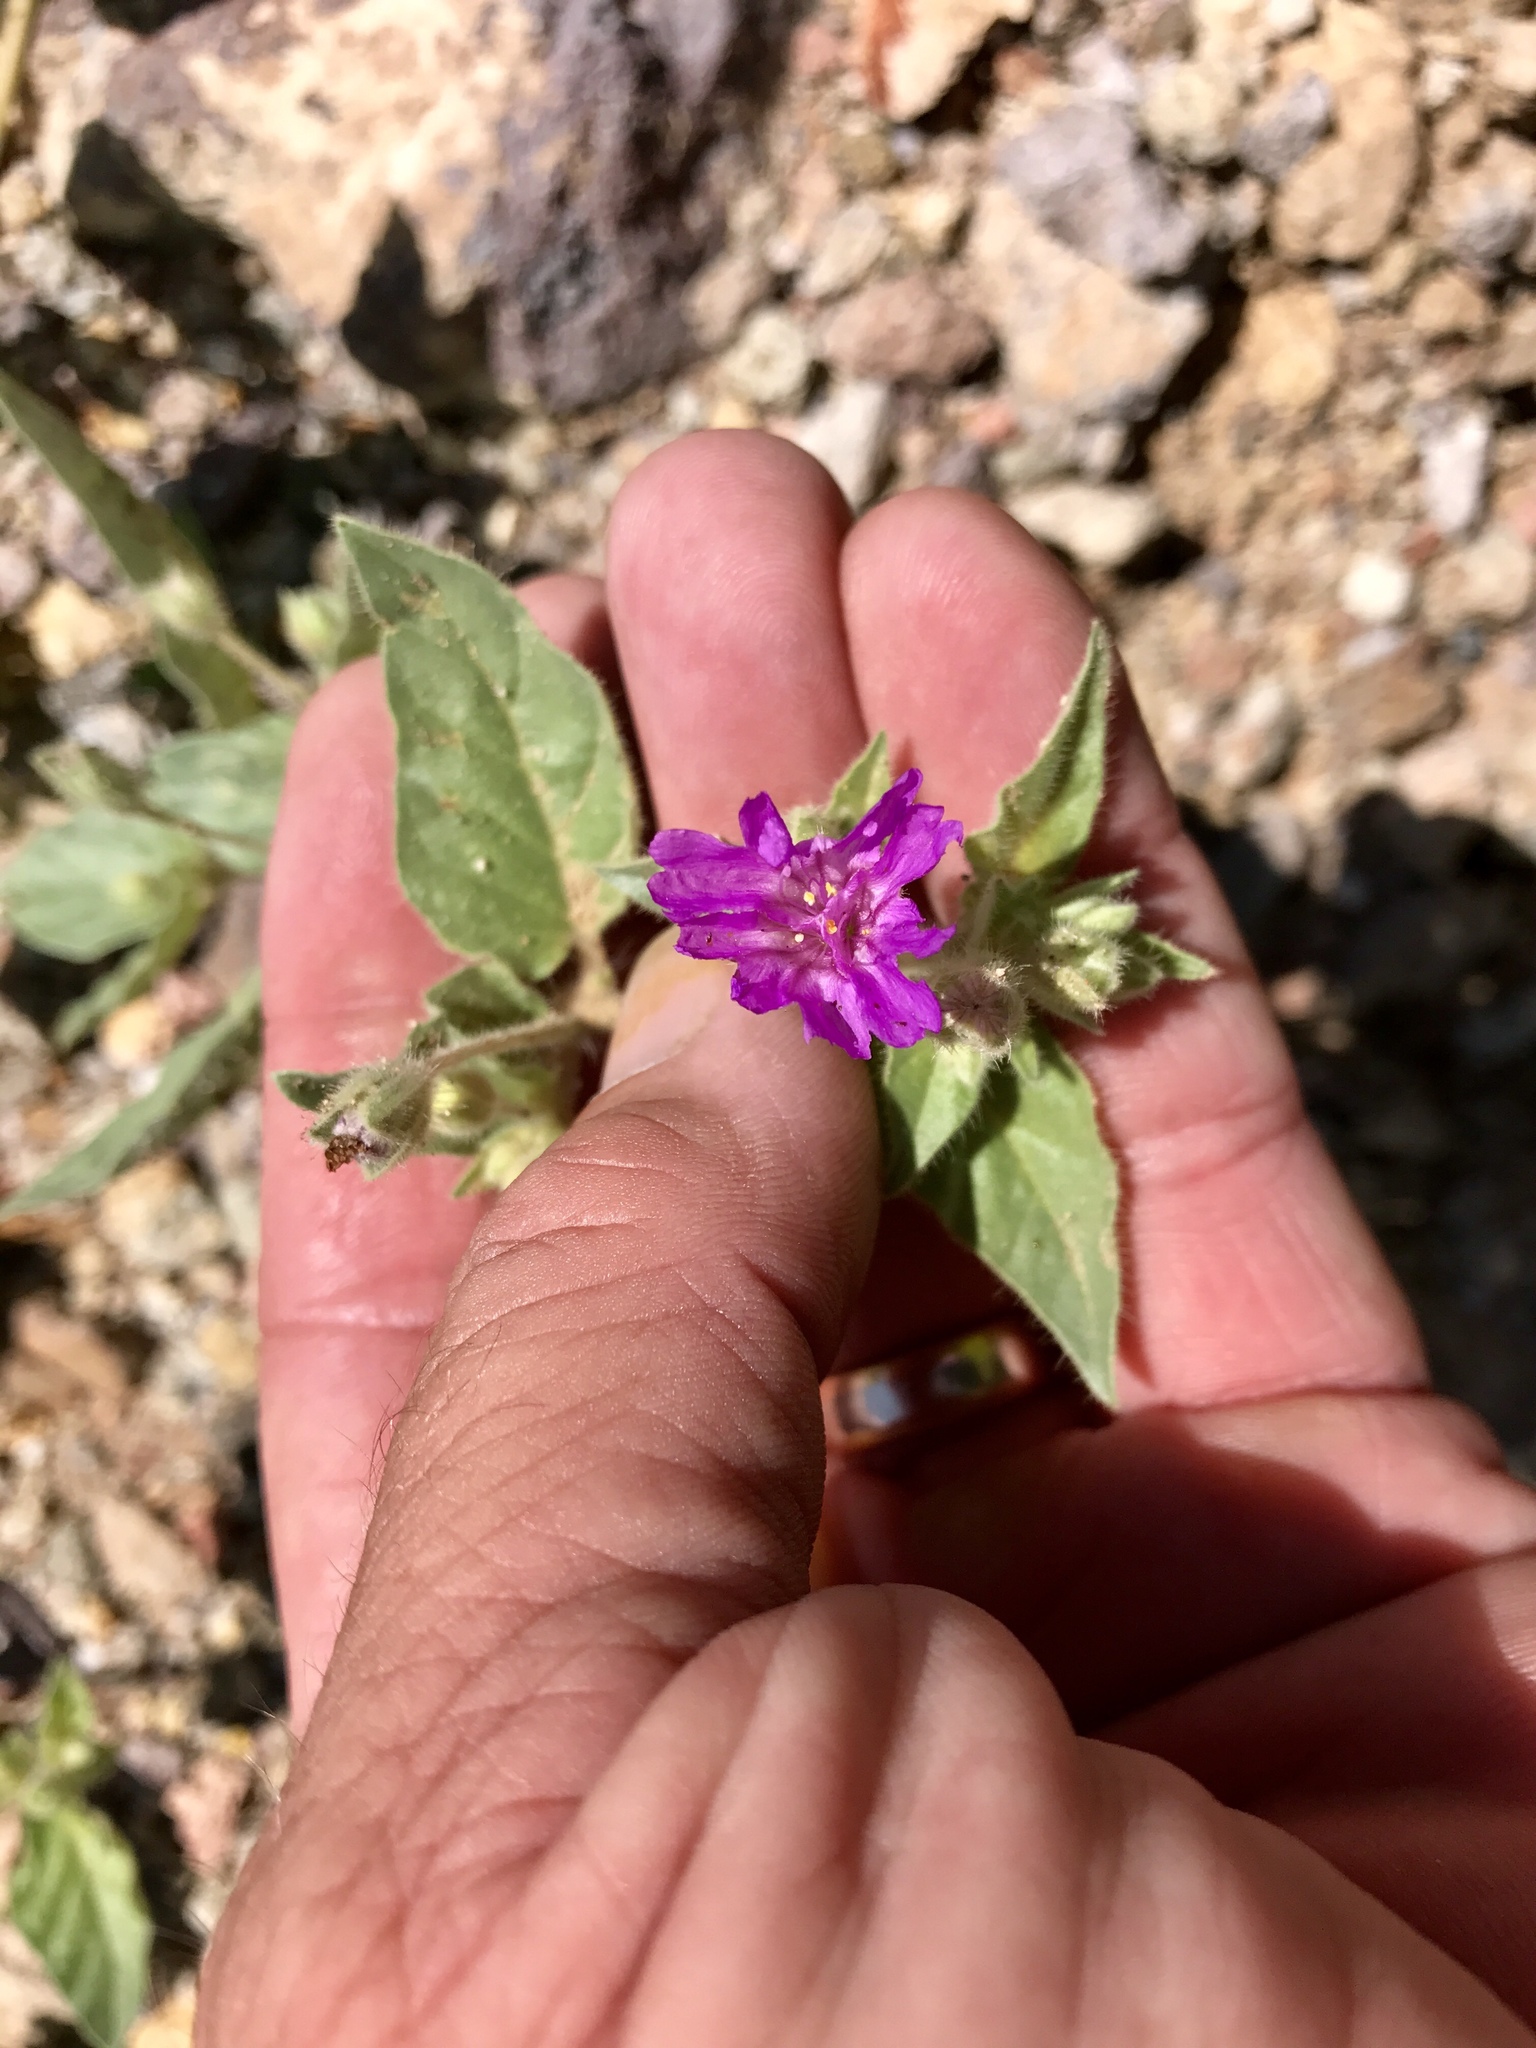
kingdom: Plantae
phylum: Tracheophyta
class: Magnoliopsida
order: Caryophyllales
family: Nyctaginaceae
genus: Allionia
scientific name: Allionia incarnata
